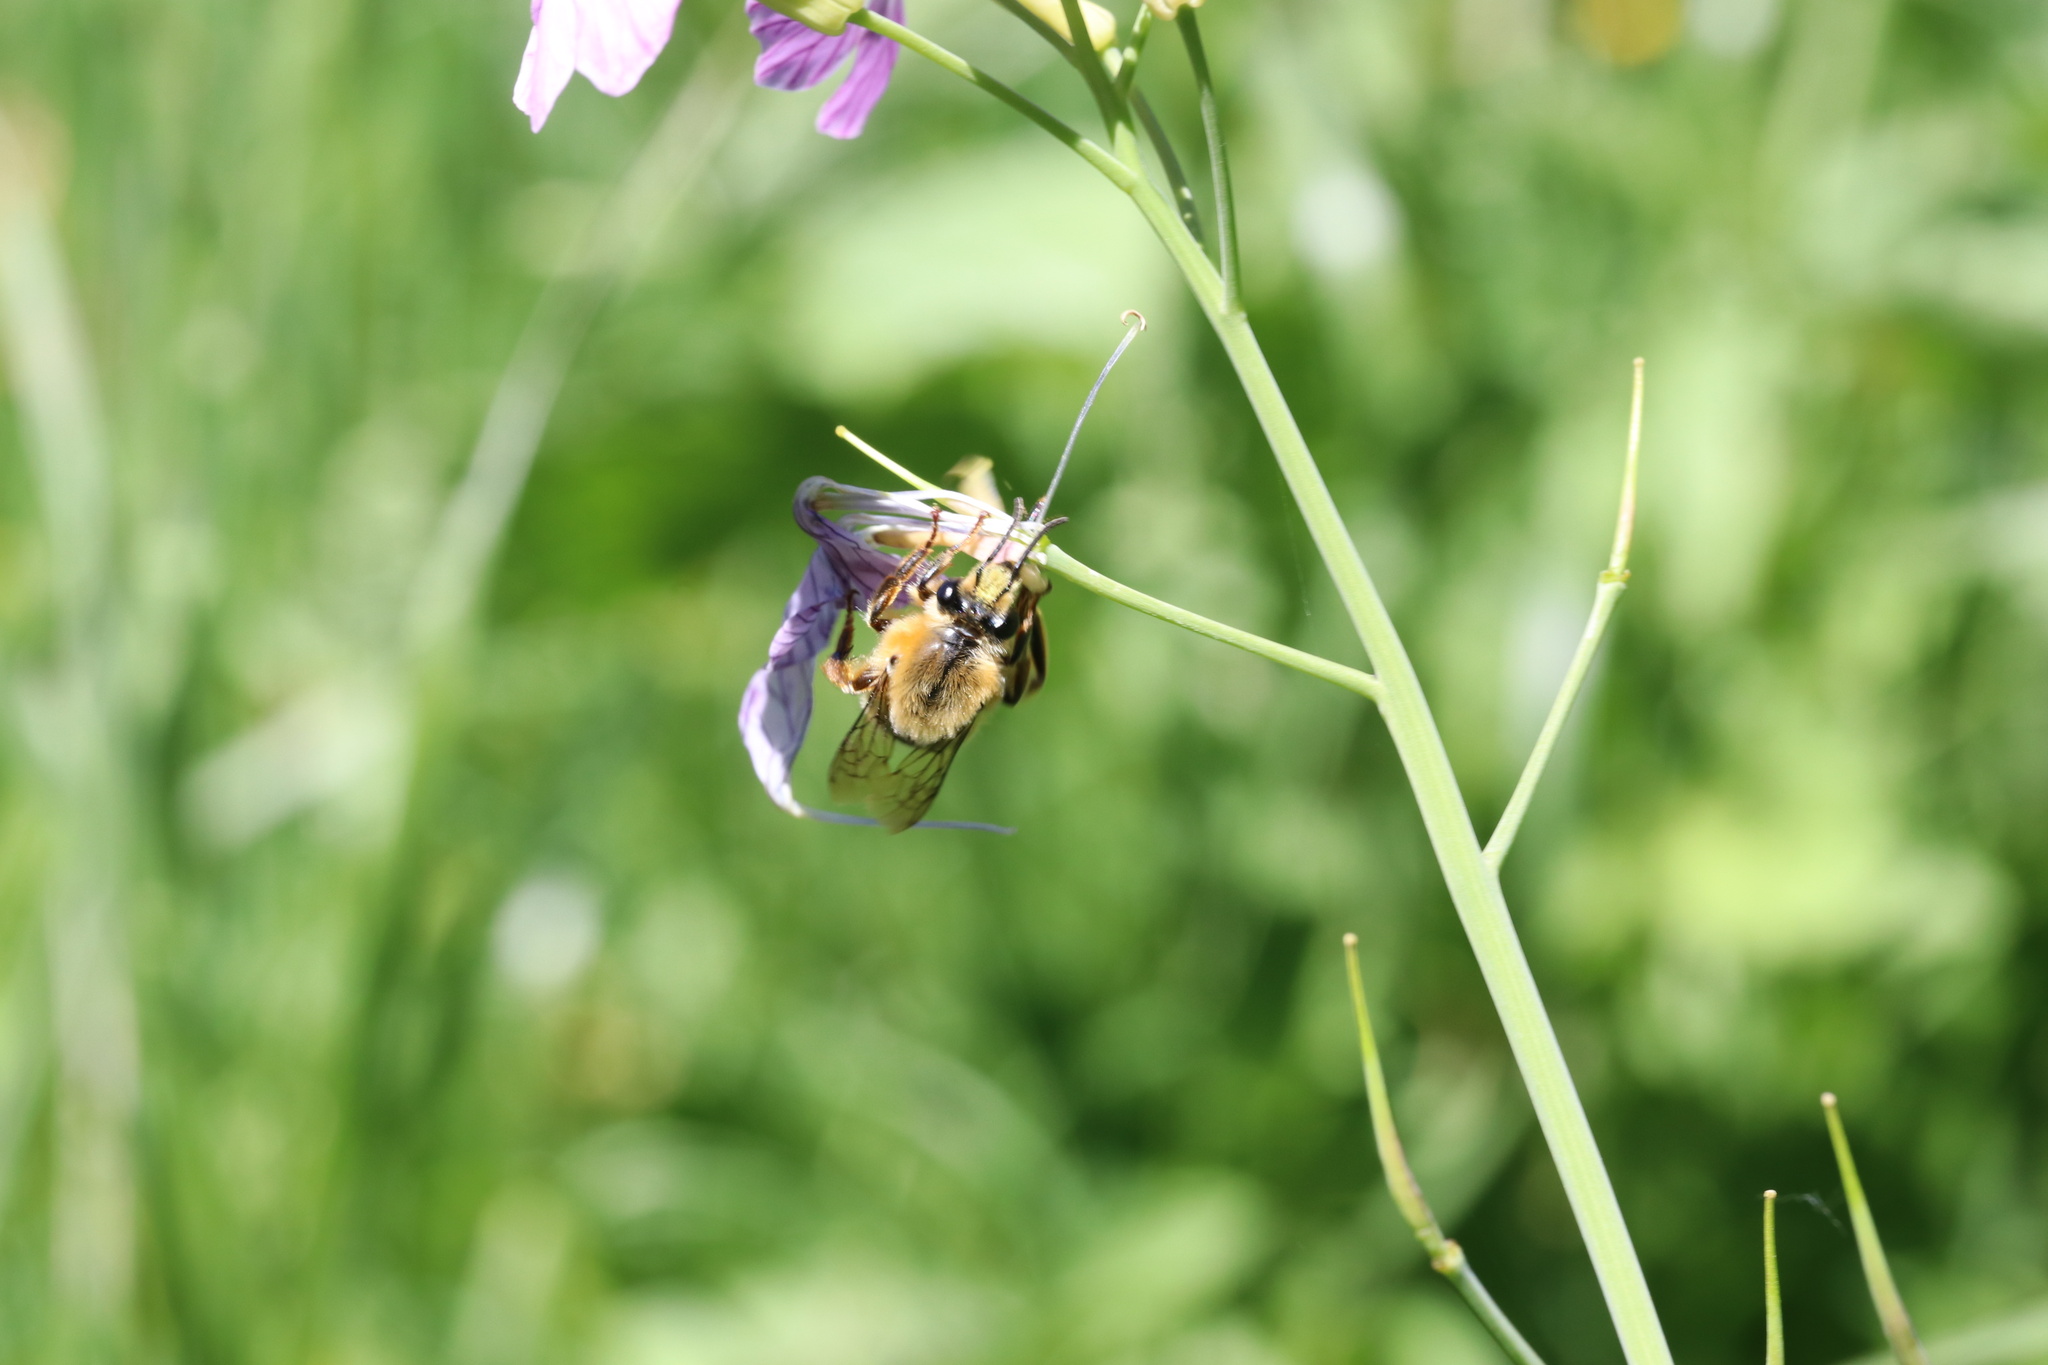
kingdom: Animalia
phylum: Arthropoda
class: Insecta
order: Hymenoptera
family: Colletidae
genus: Cadeguala
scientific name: Cadeguala occidentalis
